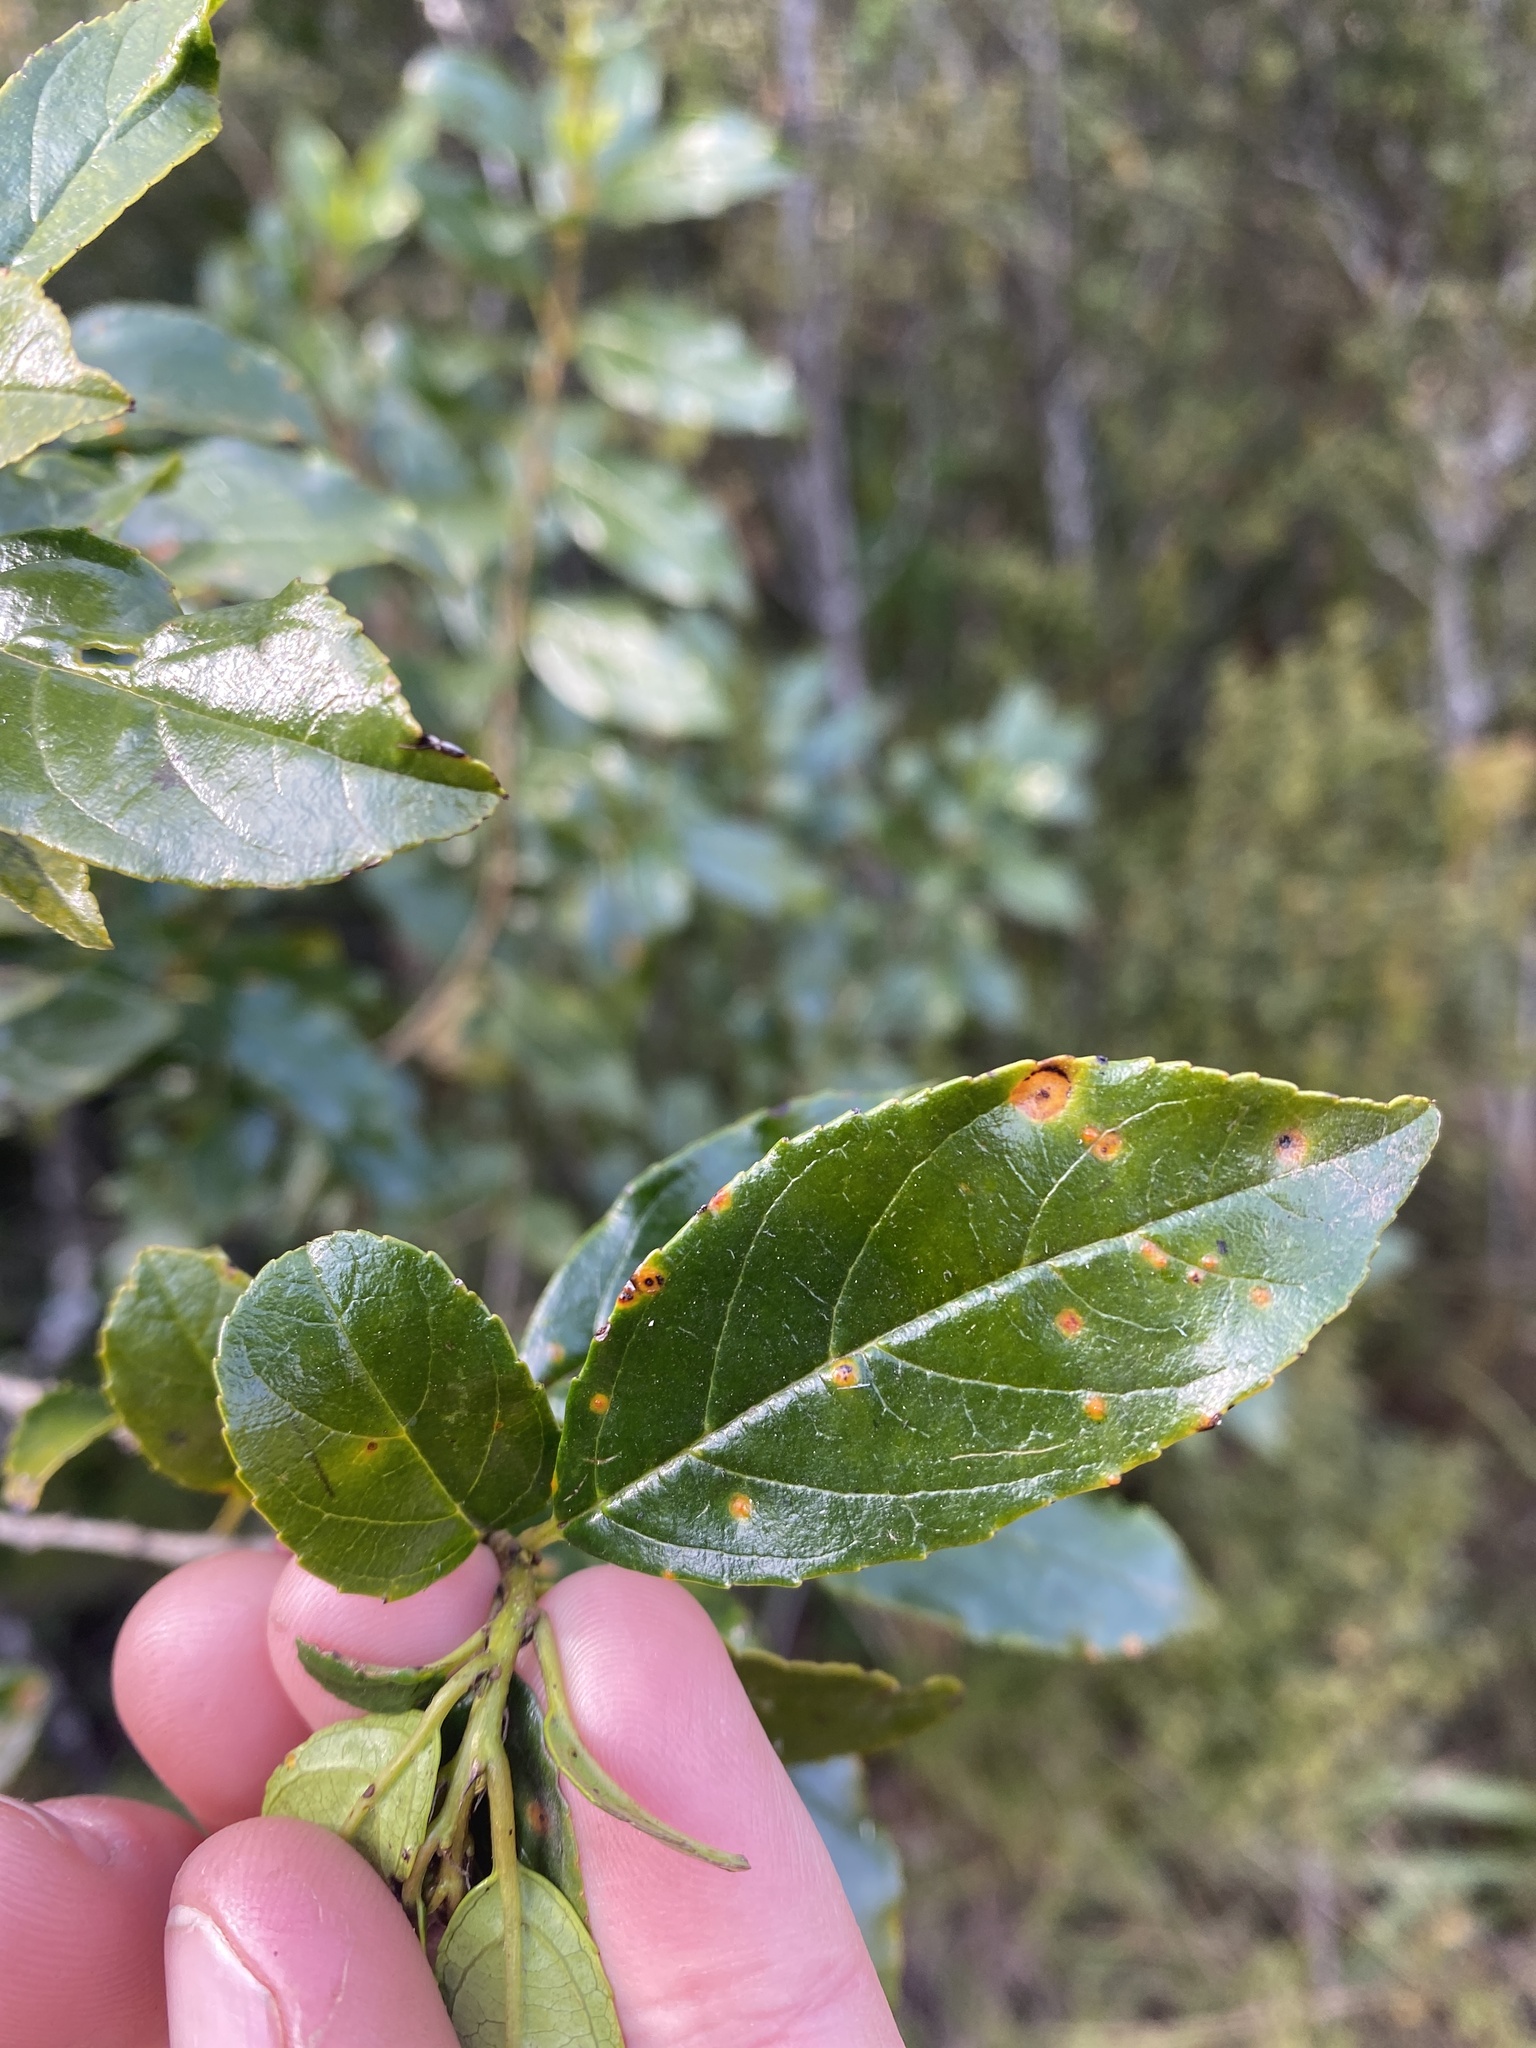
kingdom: Plantae
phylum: Tracheophyta
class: Magnoliopsida
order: Rosales
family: Rhamnaceae
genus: Rhamnus
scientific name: Rhamnus prinoides
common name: Dogwood
